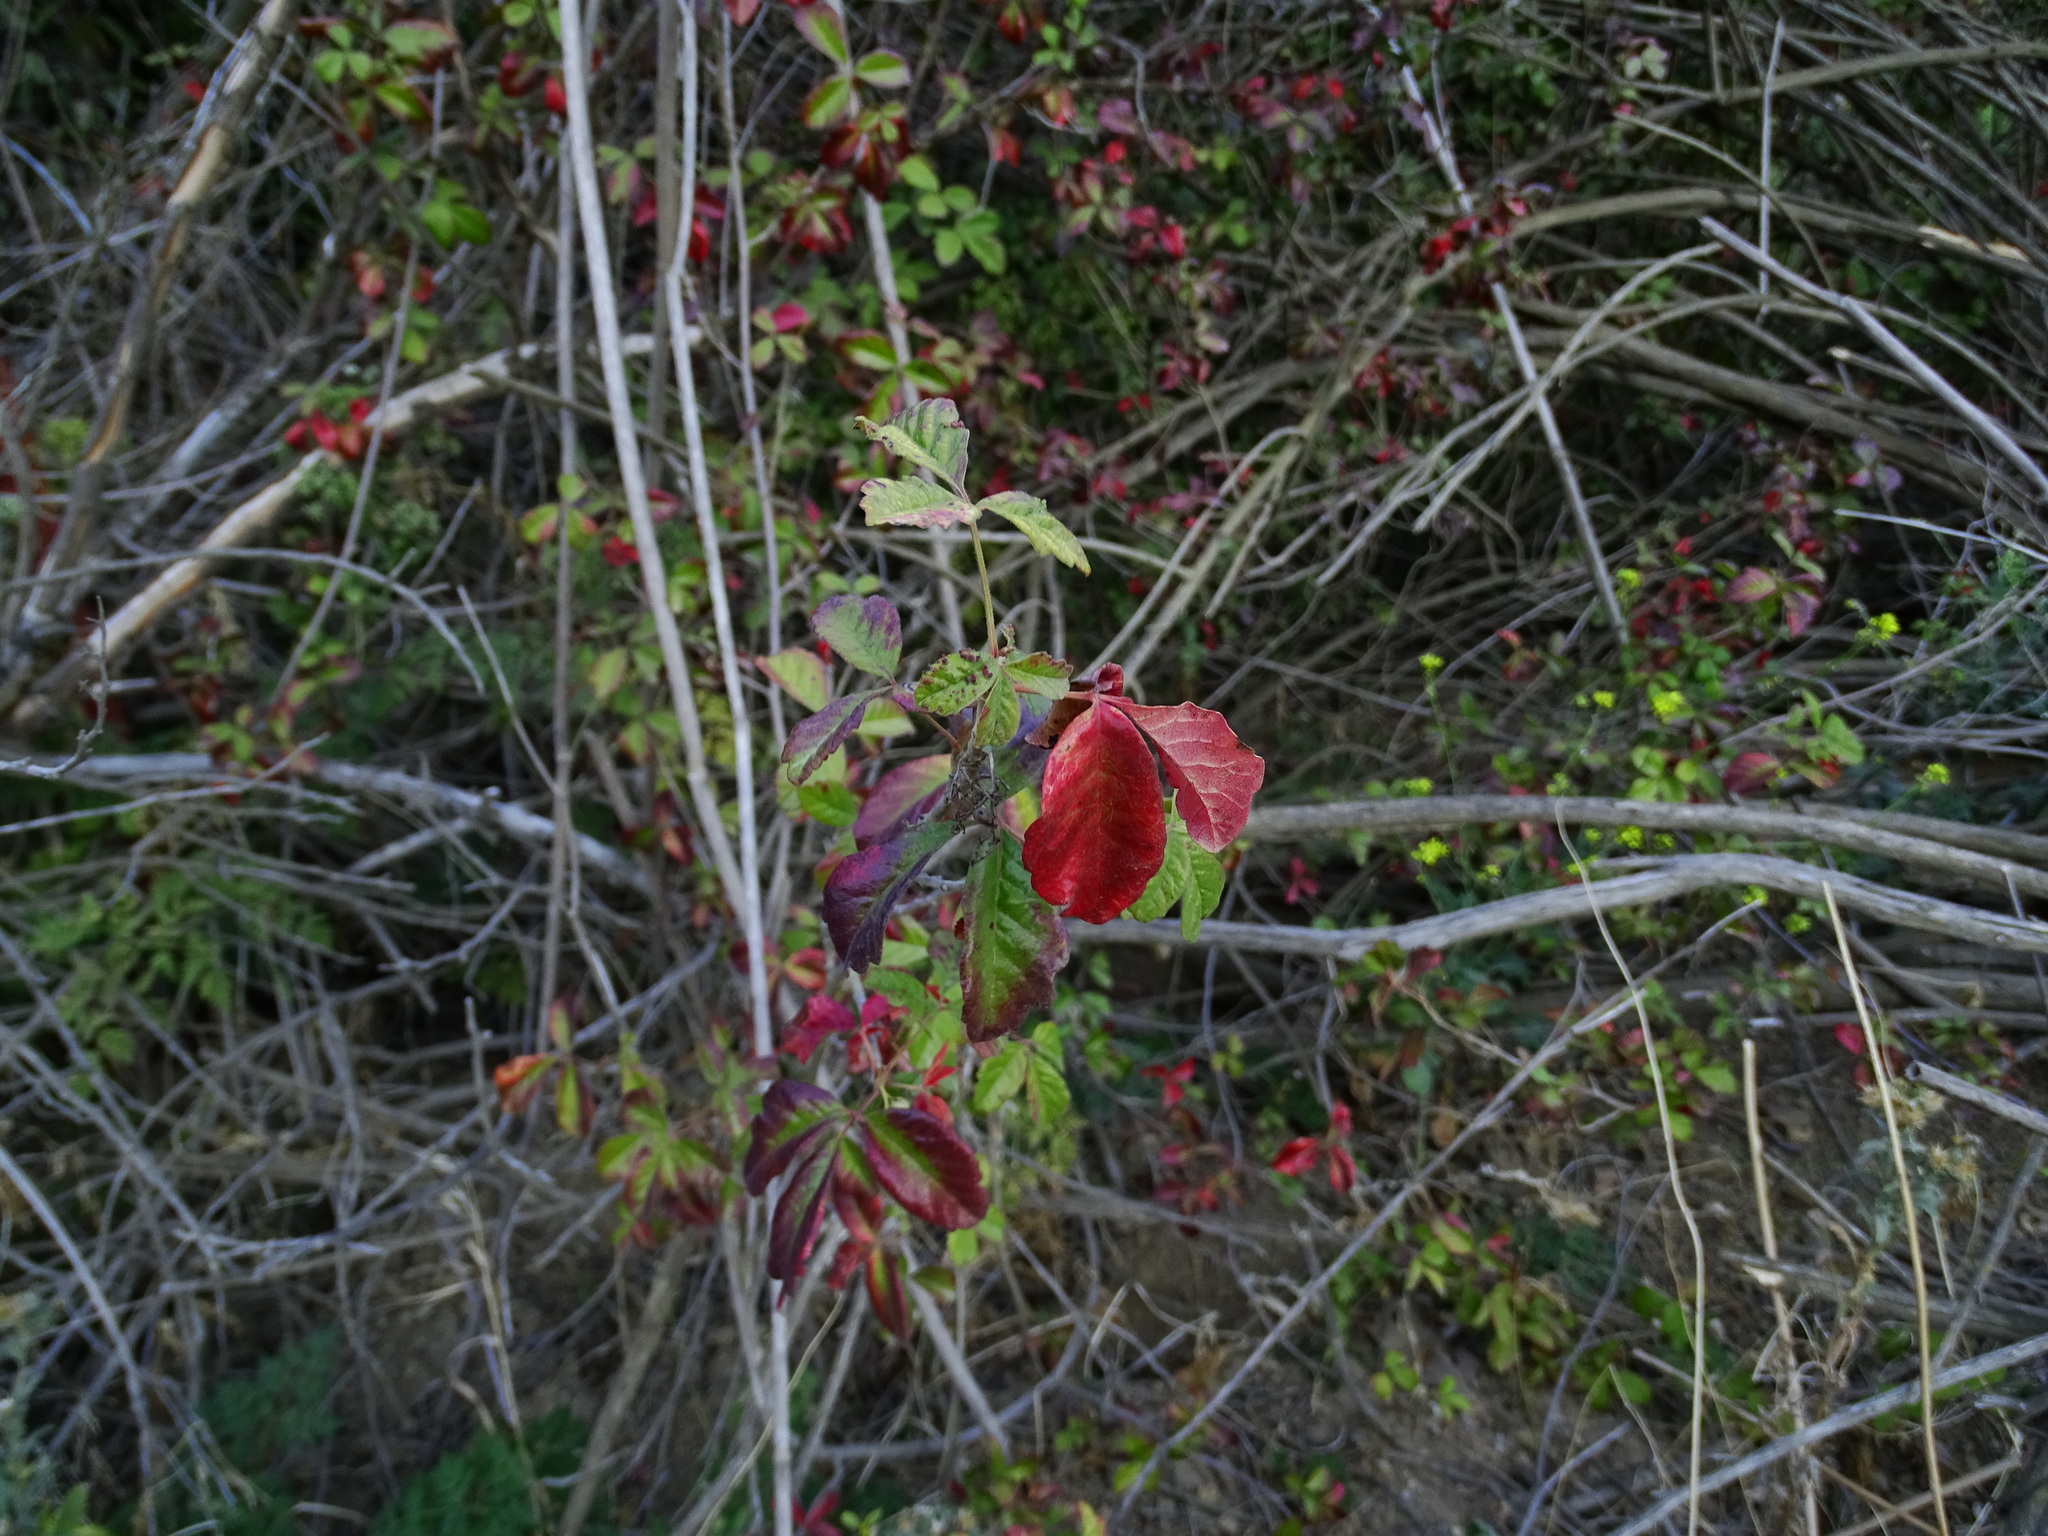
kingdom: Plantae
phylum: Tracheophyta
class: Magnoliopsida
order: Sapindales
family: Anacardiaceae
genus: Toxicodendron
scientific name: Toxicodendron diversilobum
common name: Pacific poison-oak
